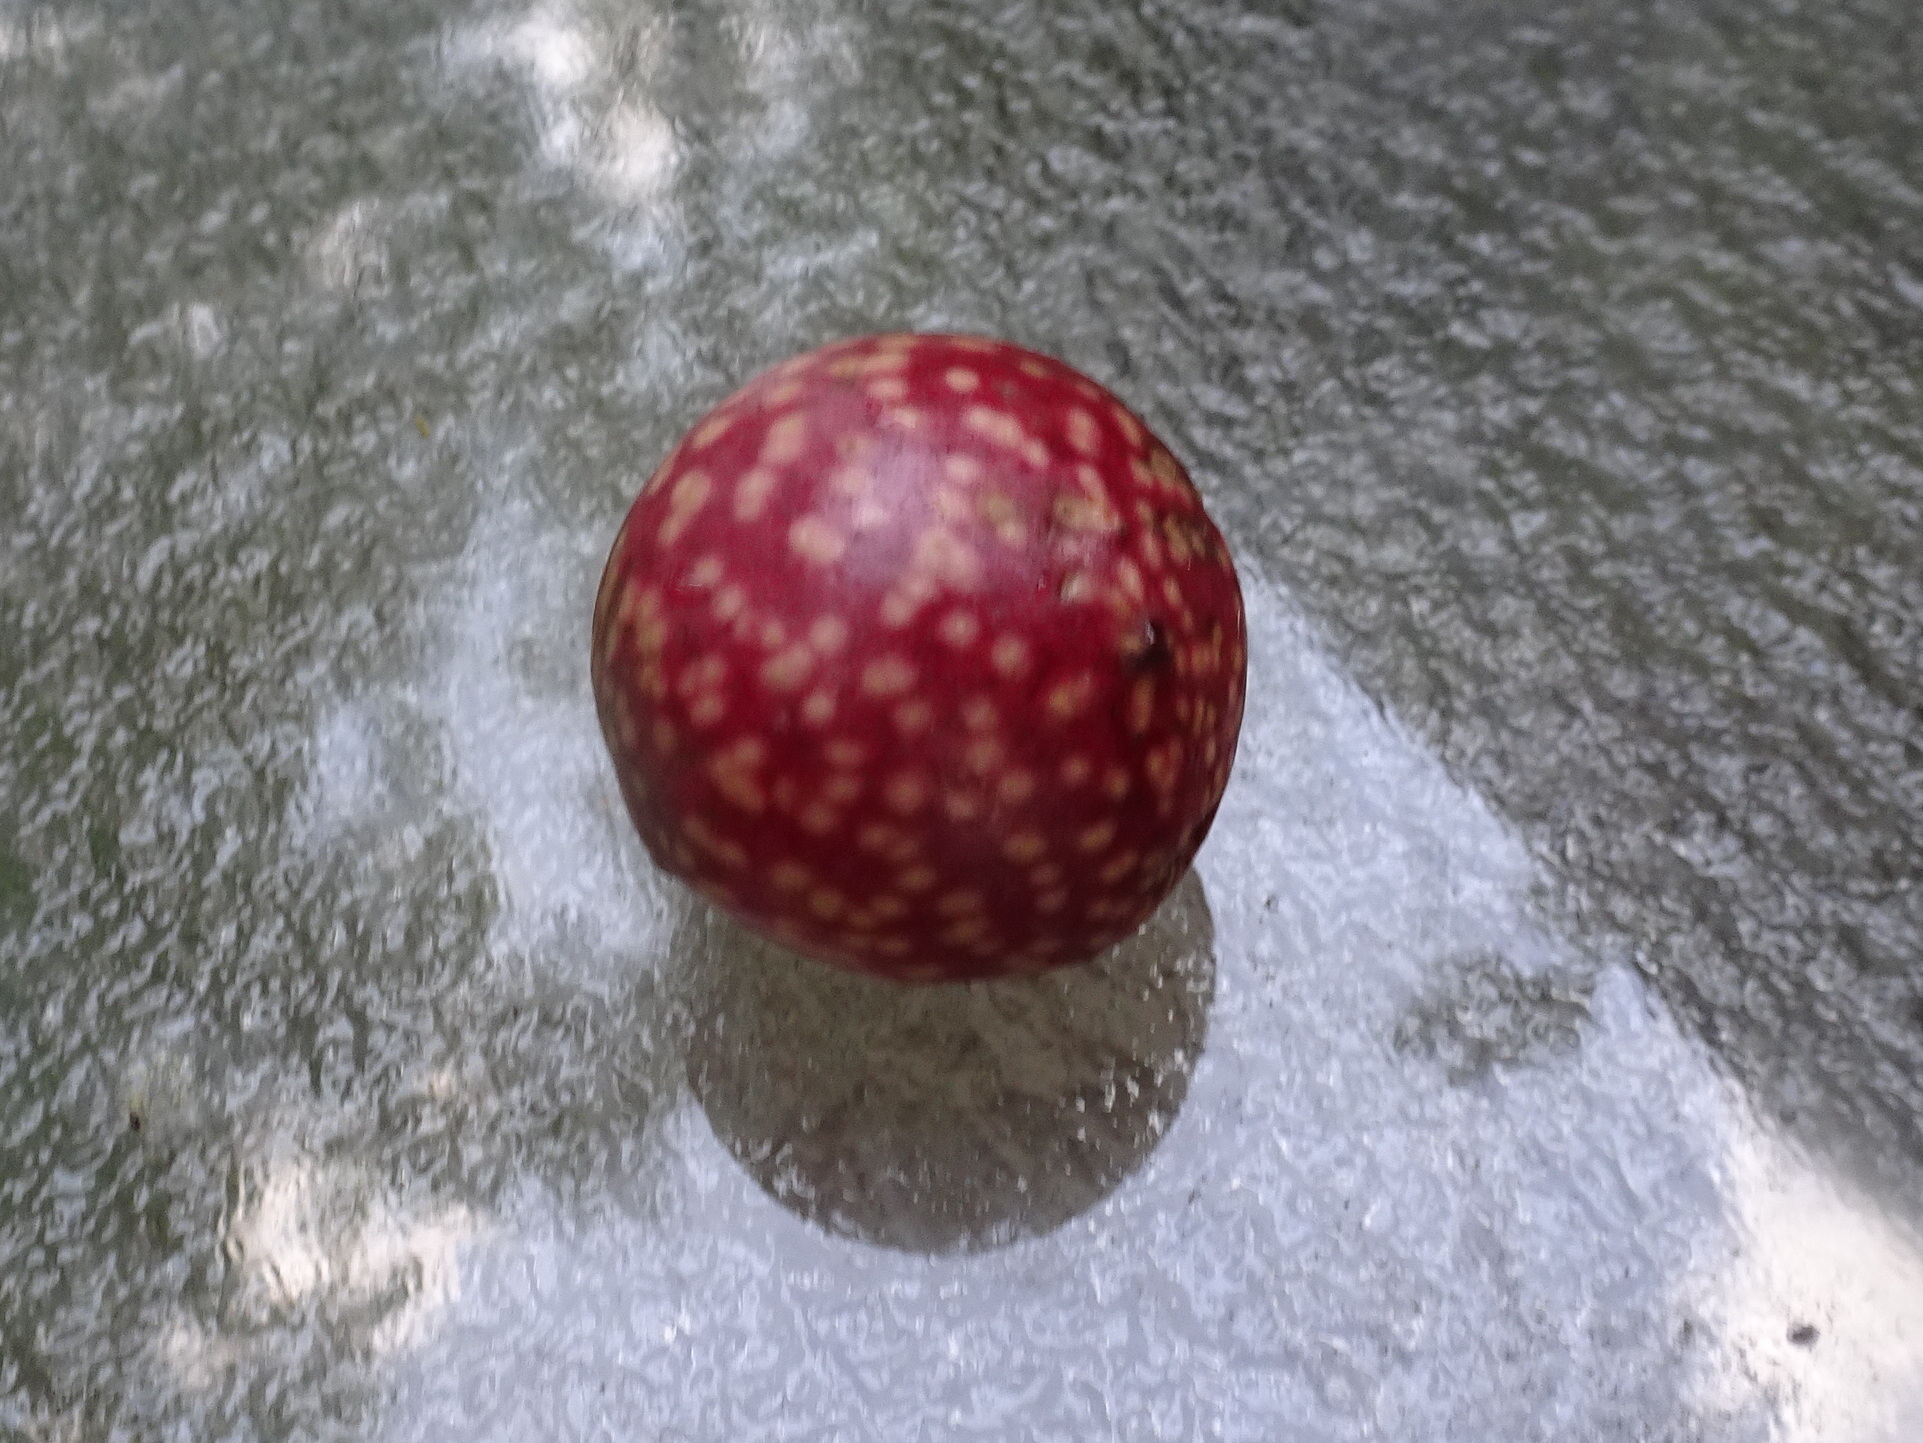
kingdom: Animalia
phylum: Arthropoda
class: Insecta
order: Hymenoptera
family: Cynipidae
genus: Amphibolips
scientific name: Amphibolips
